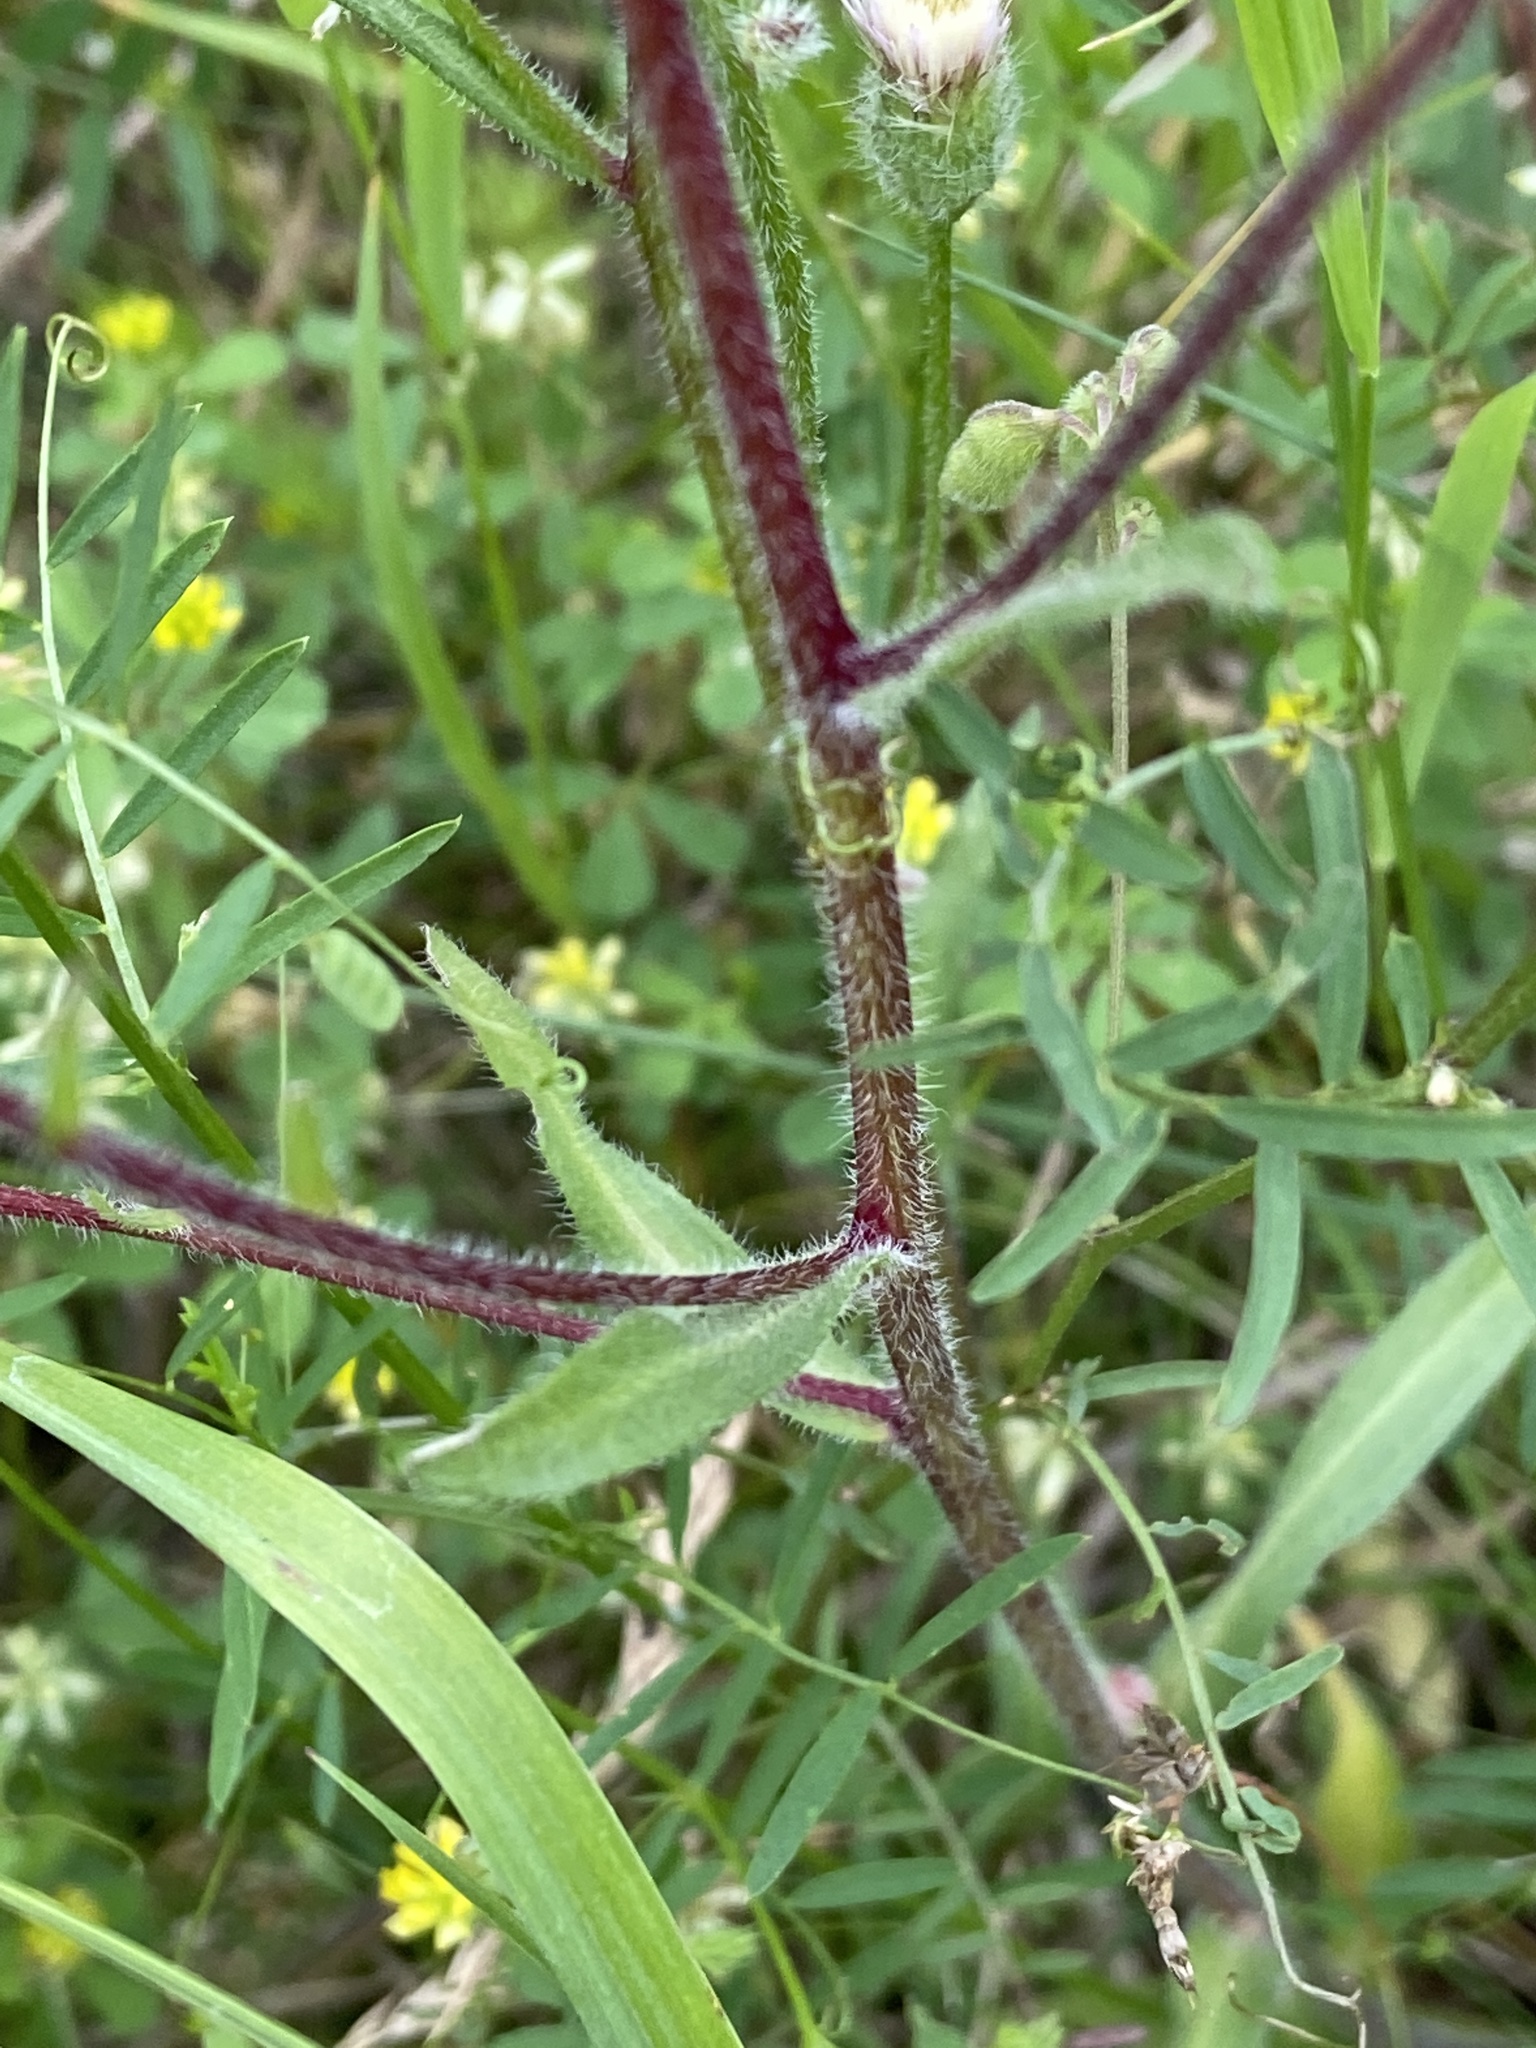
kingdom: Plantae
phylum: Tracheophyta
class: Magnoliopsida
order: Asterales
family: Asteraceae
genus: Erigeron
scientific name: Erigeron acris
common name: Blue fleabane
